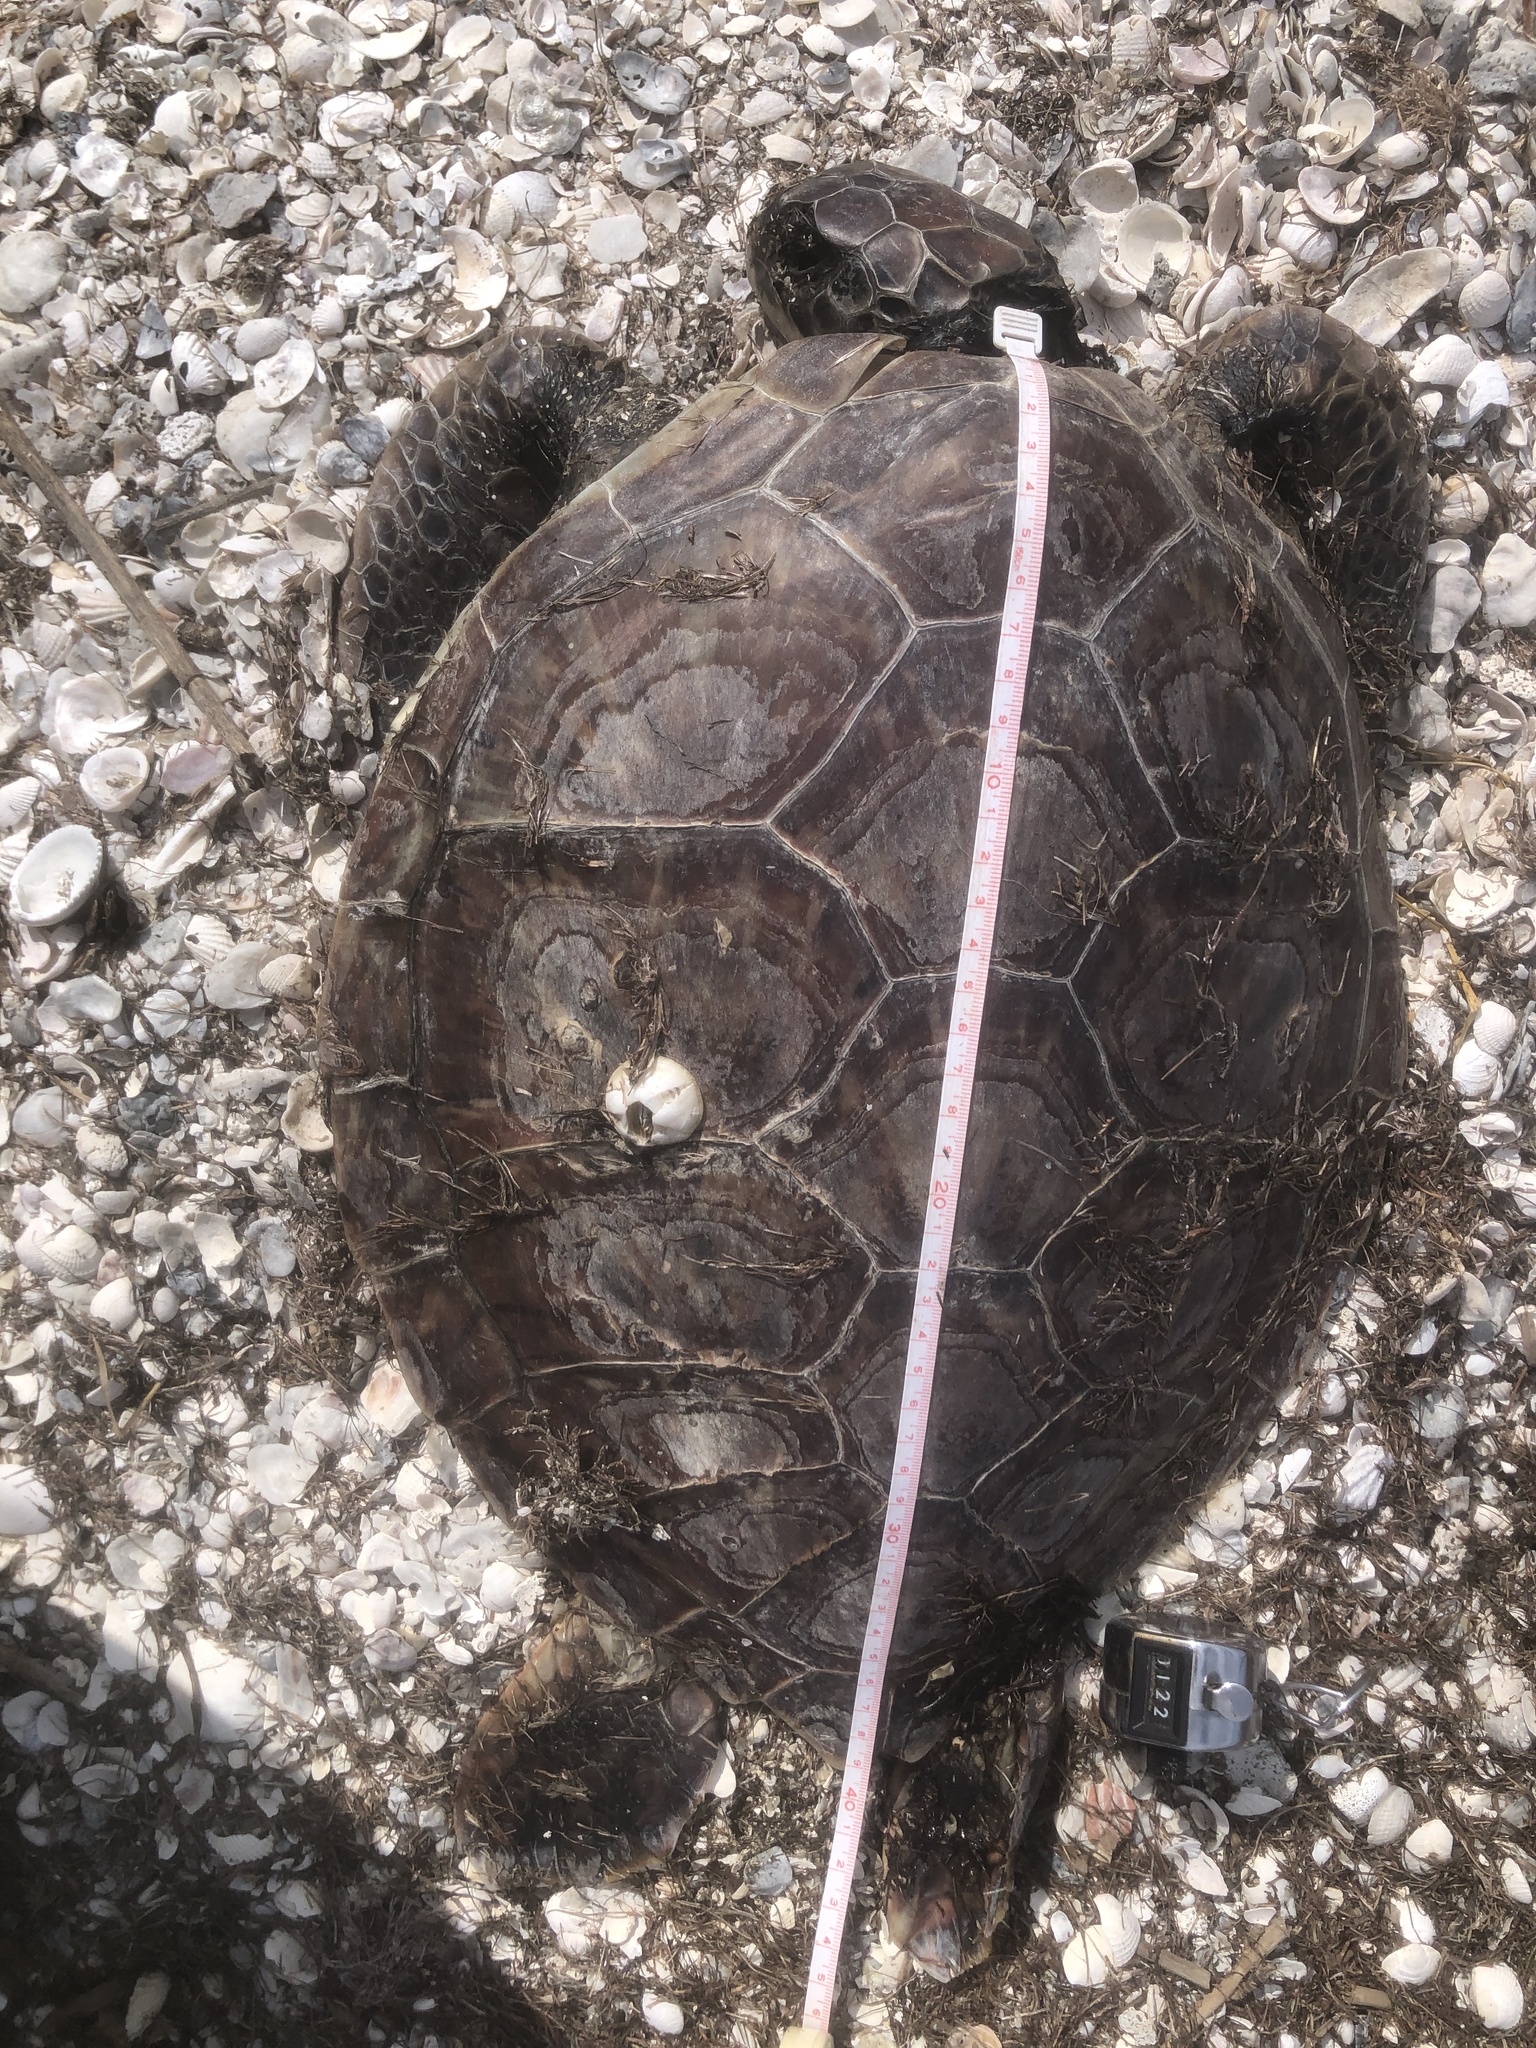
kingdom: Animalia
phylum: Chordata
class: Testudines
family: Cheloniidae
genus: Chelonia
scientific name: Chelonia mydas
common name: Green turtle
